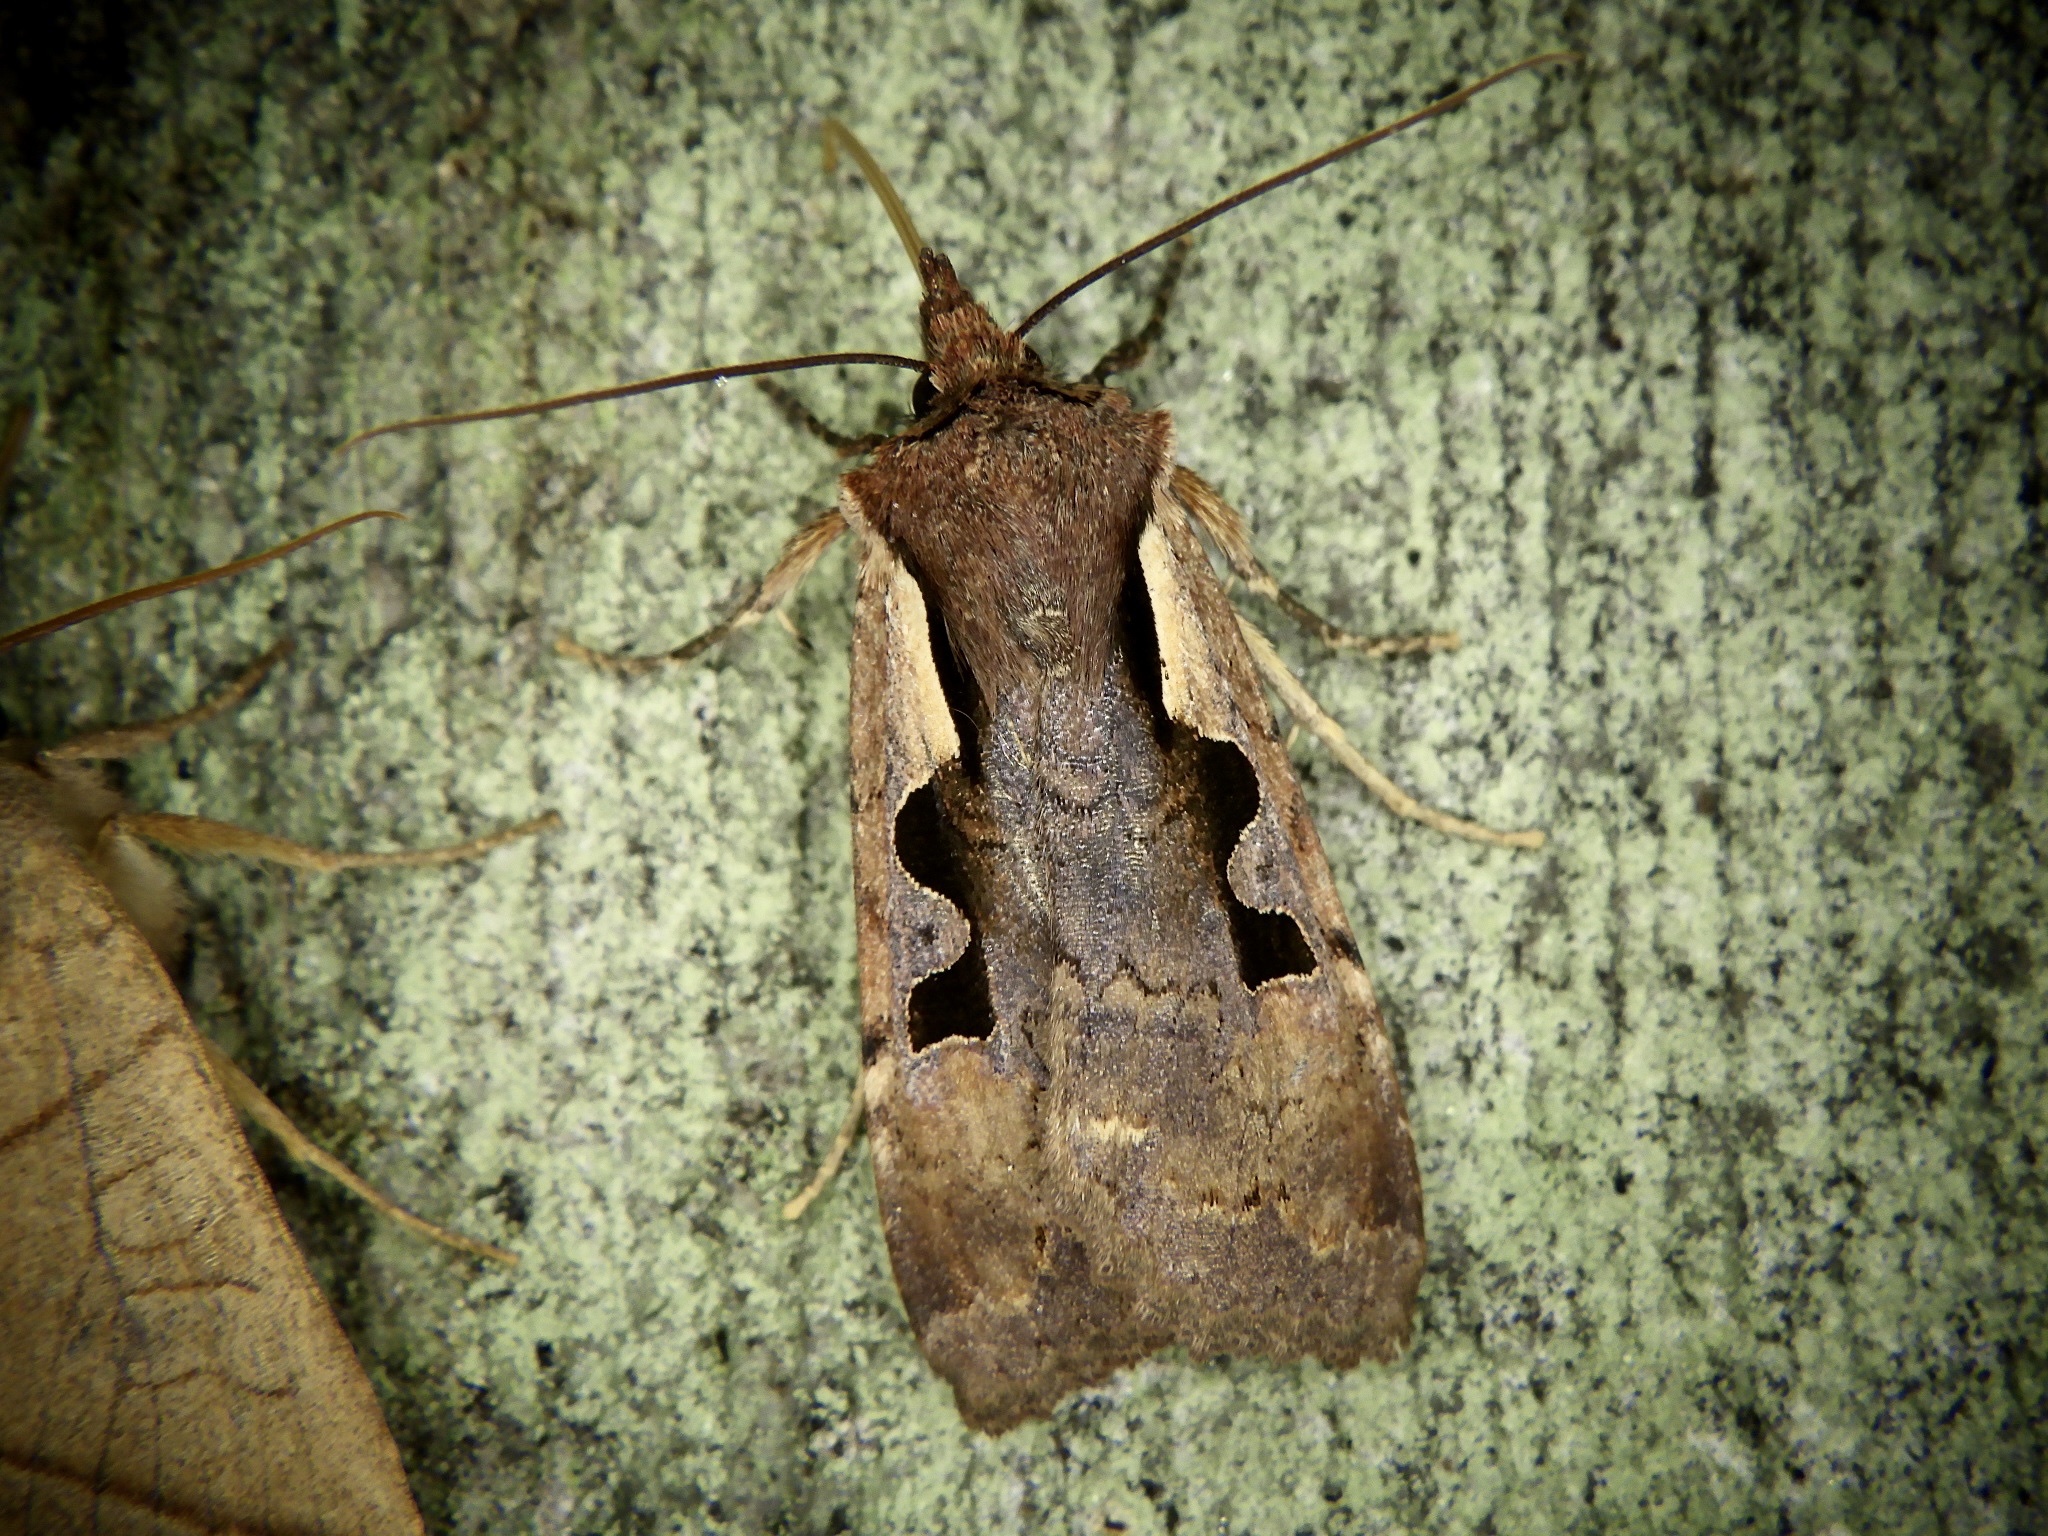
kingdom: Animalia
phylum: Arthropoda
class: Insecta
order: Lepidoptera
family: Noctuidae
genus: Sugitania
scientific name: Sugitania lepida
